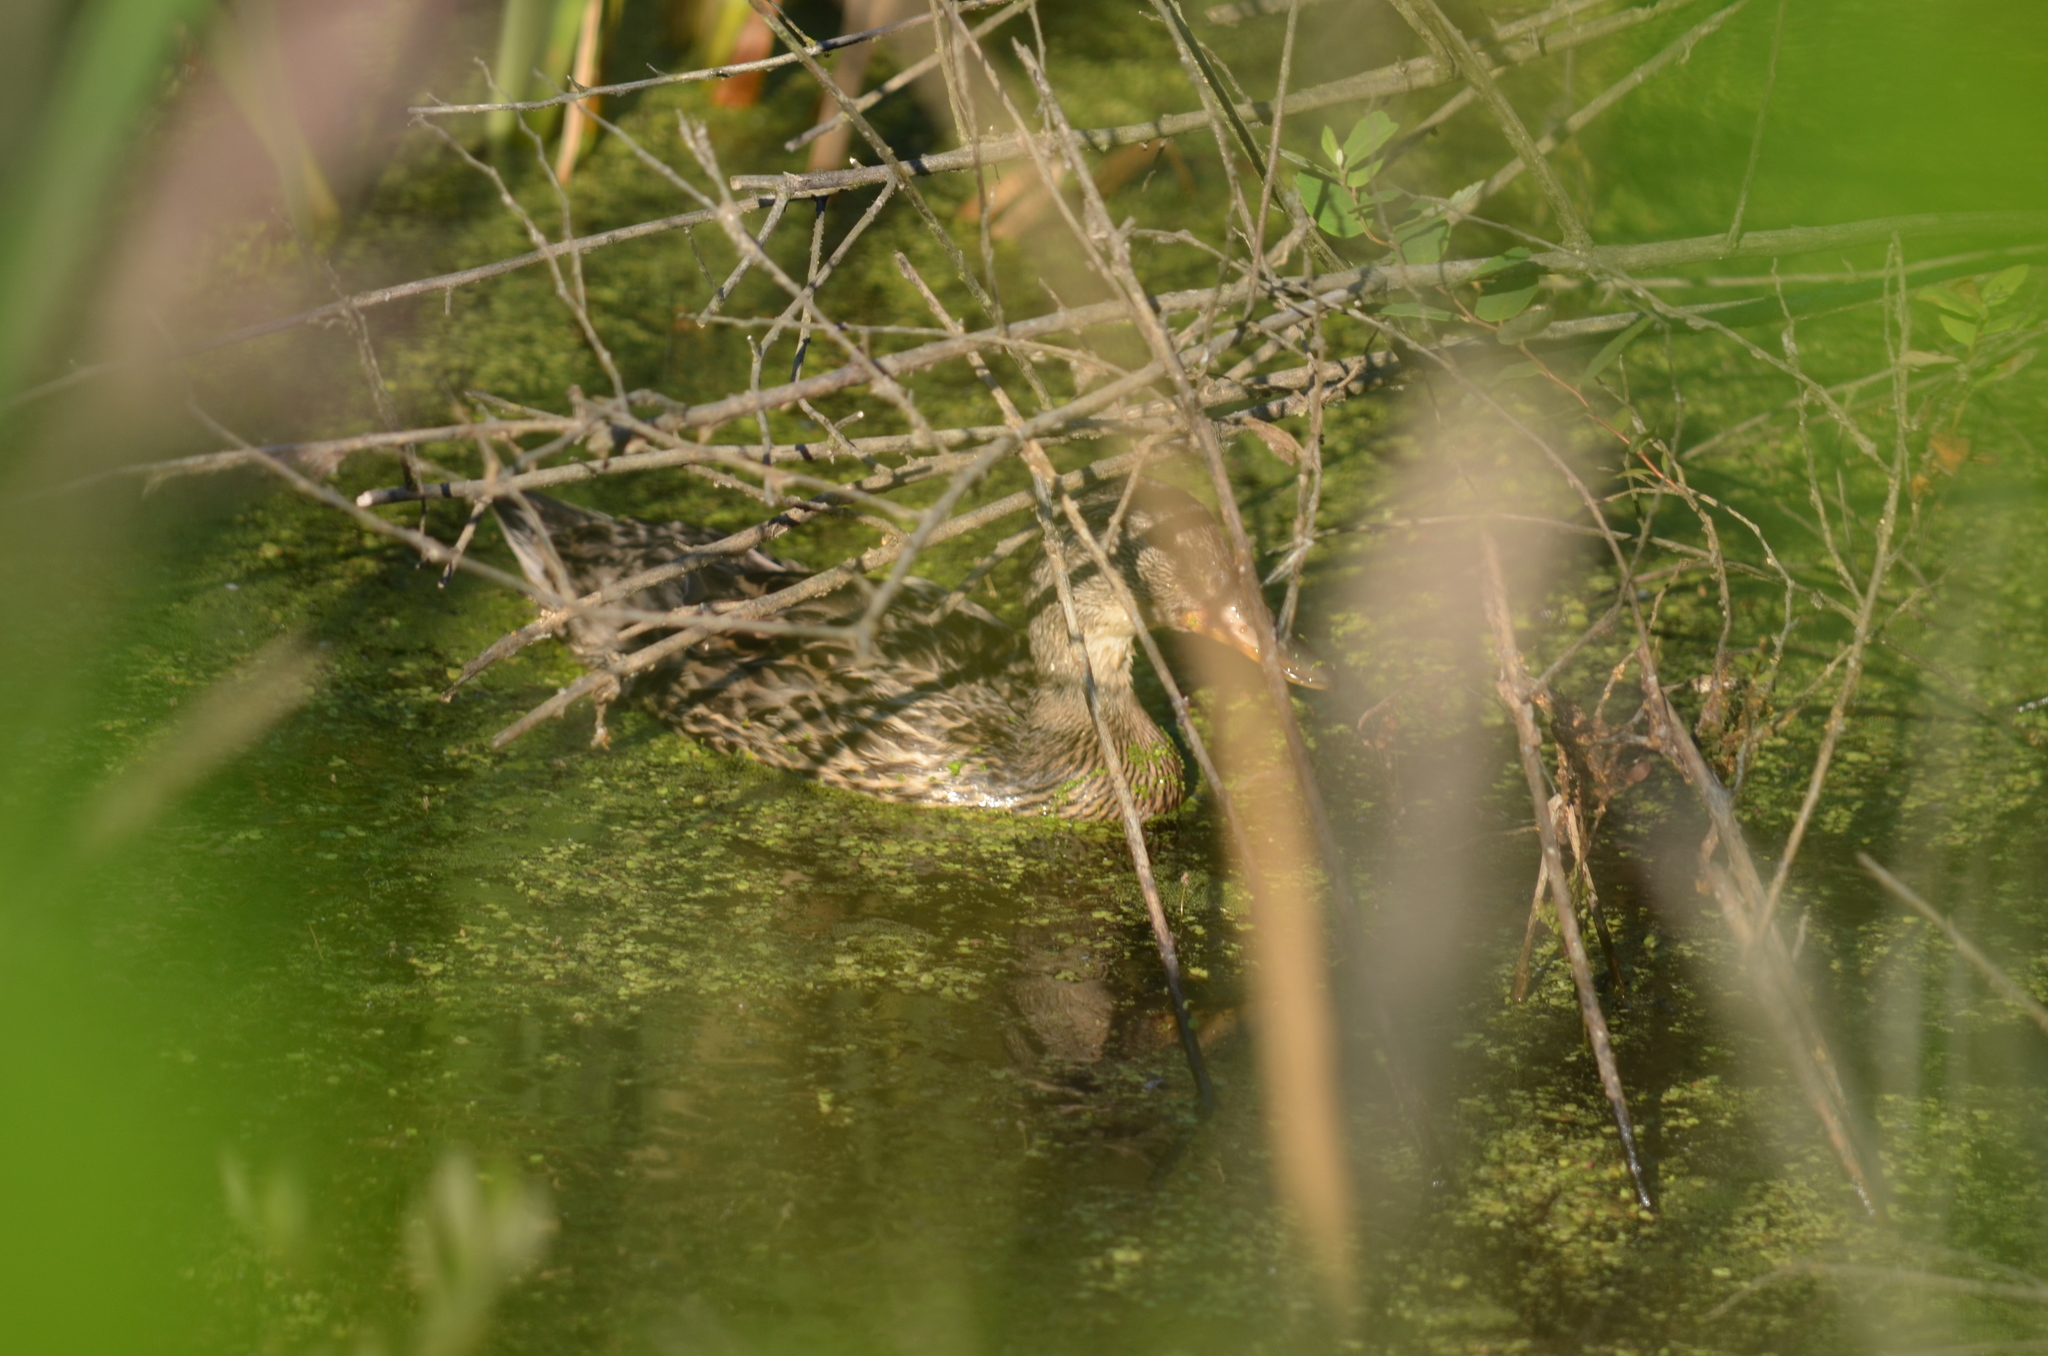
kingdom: Animalia
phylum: Chordata
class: Aves
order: Anseriformes
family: Anatidae
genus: Anas
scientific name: Anas platyrhynchos
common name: Mallard
